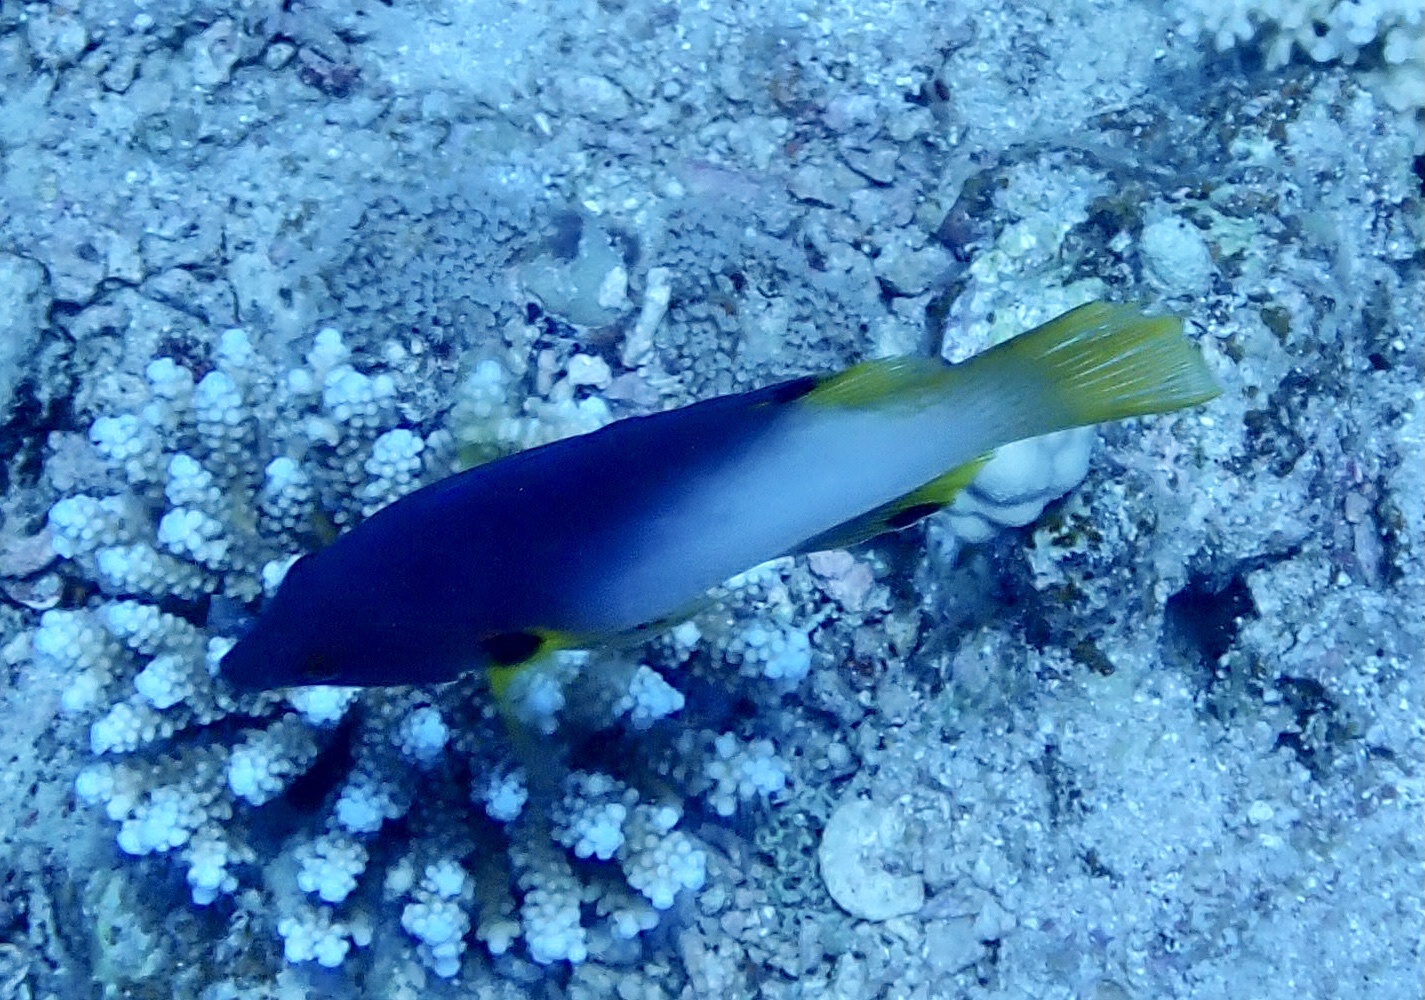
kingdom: Animalia
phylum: Chordata
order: Perciformes
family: Labridae
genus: Bodianus
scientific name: Bodianus axillaris
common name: Axilspot hogfish
